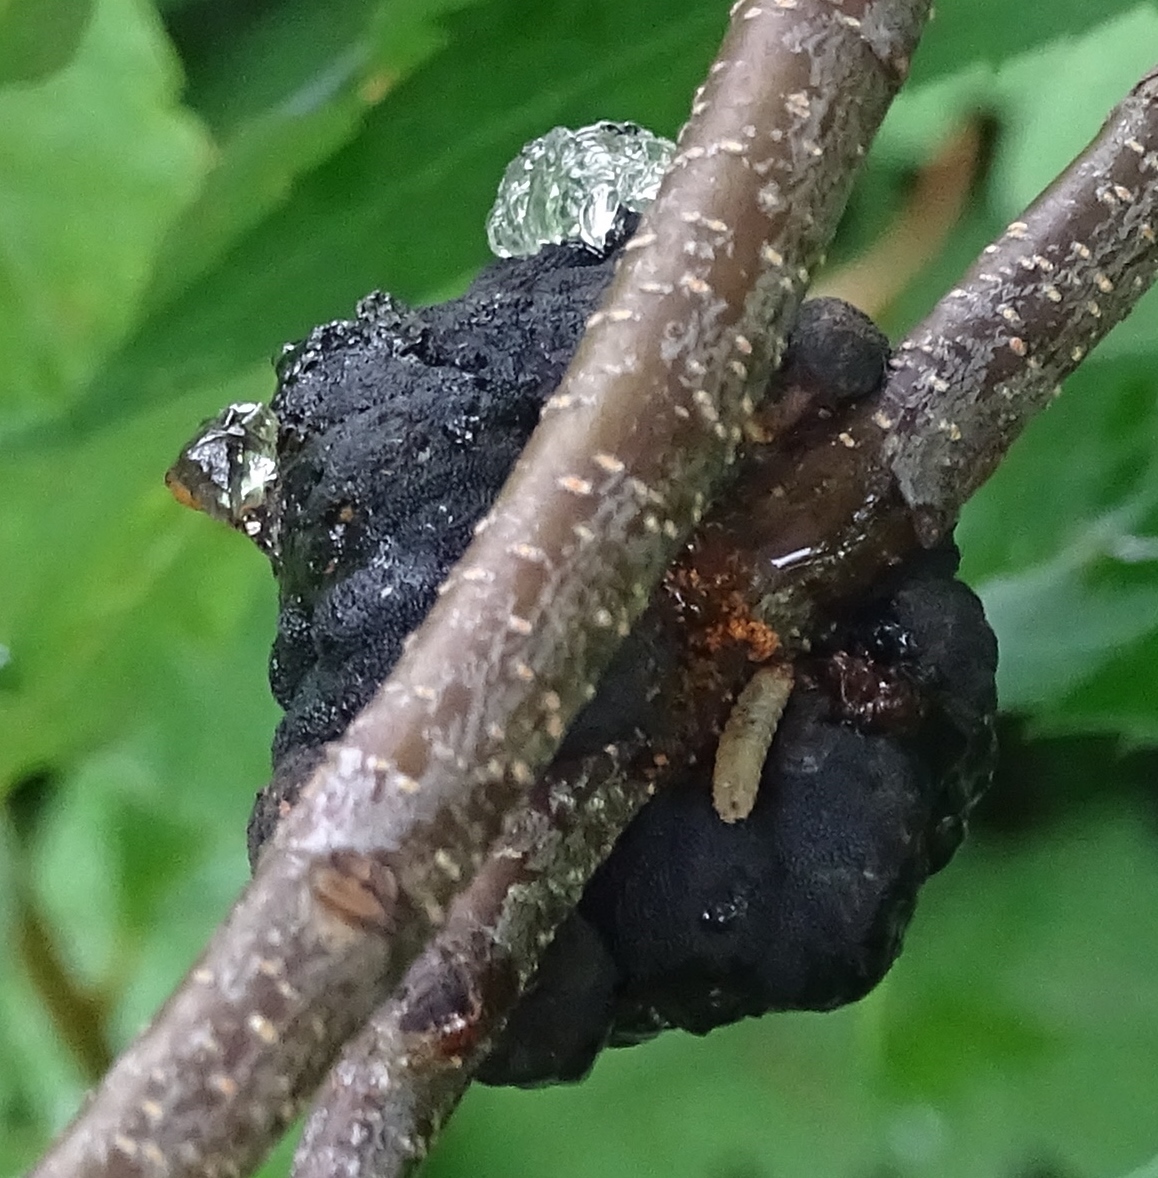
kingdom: Fungi
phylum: Ascomycota
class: Dothideomycetes
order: Venturiales
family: Venturiaceae
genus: Apiosporina
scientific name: Apiosporina morbosa
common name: Black knot
